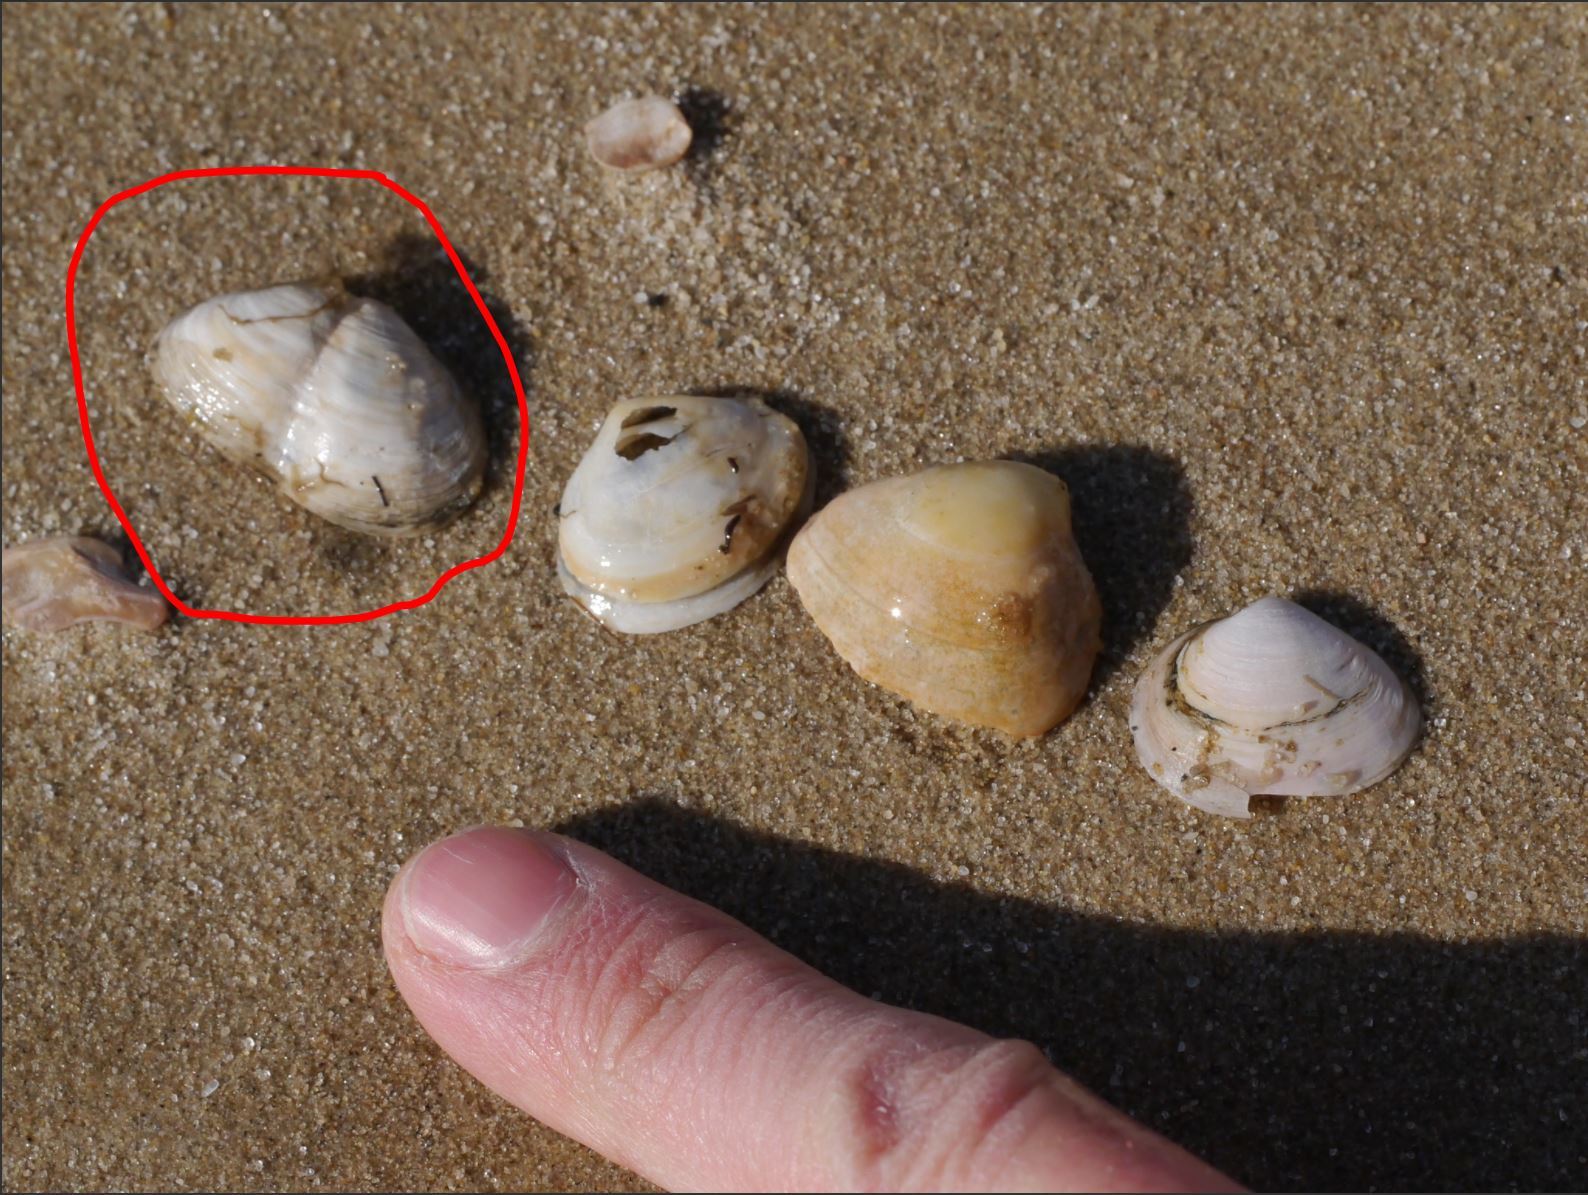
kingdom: Animalia
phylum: Mollusca
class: Bivalvia
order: Myida
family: Myidae
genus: Mya
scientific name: Mya arenaria
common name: Soft-shelled clam
